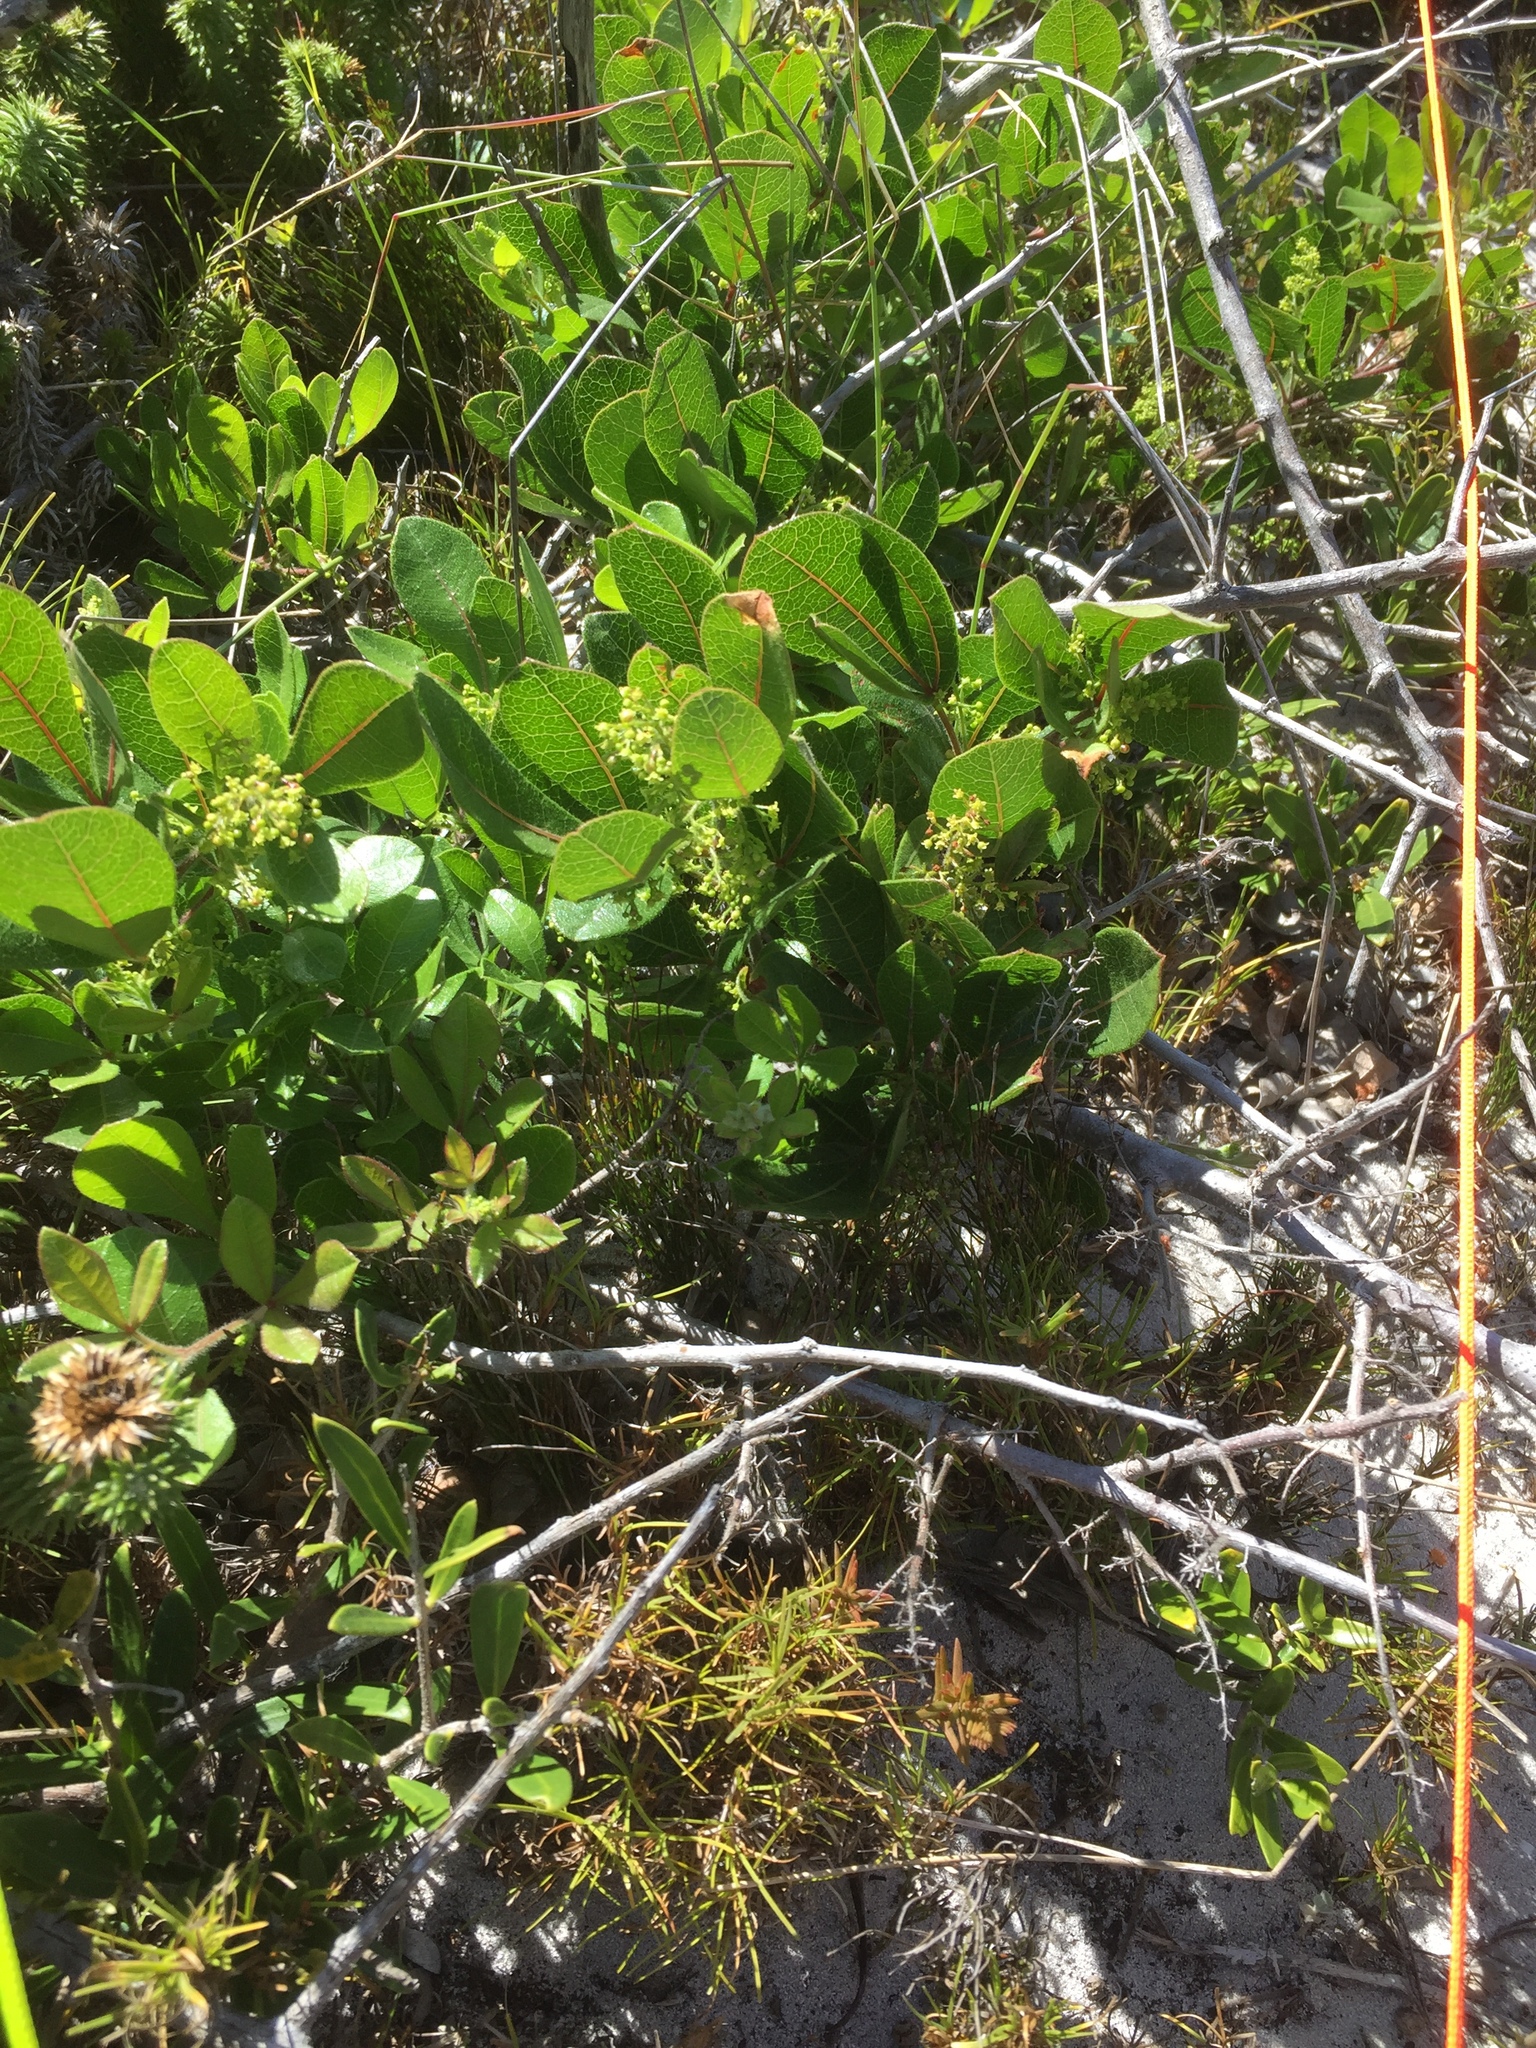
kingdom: Plantae
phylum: Tracheophyta
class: Magnoliopsida
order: Sapindales
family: Anacardiaceae
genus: Searsia
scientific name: Searsia laevigata
